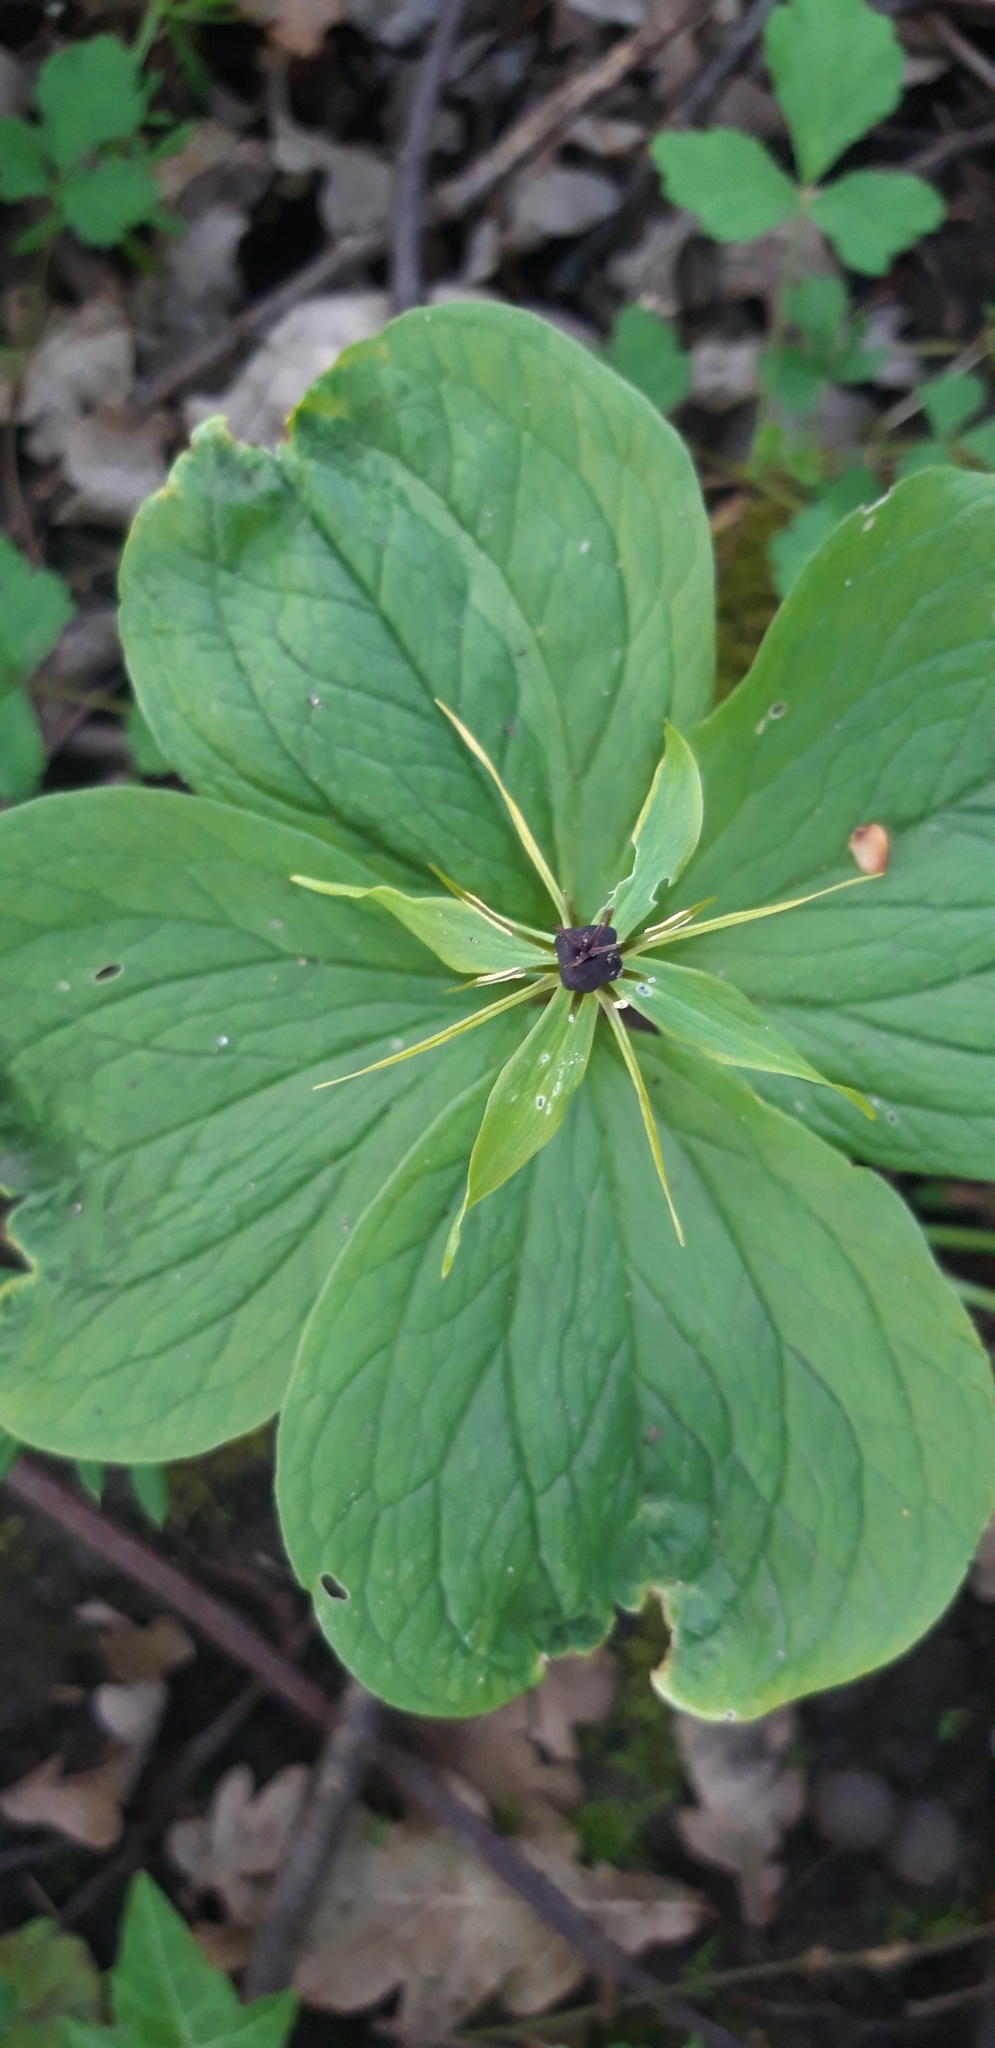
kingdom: Plantae
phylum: Tracheophyta
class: Liliopsida
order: Liliales
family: Melanthiaceae
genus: Paris
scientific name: Paris quadrifolia
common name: Herb-paris
